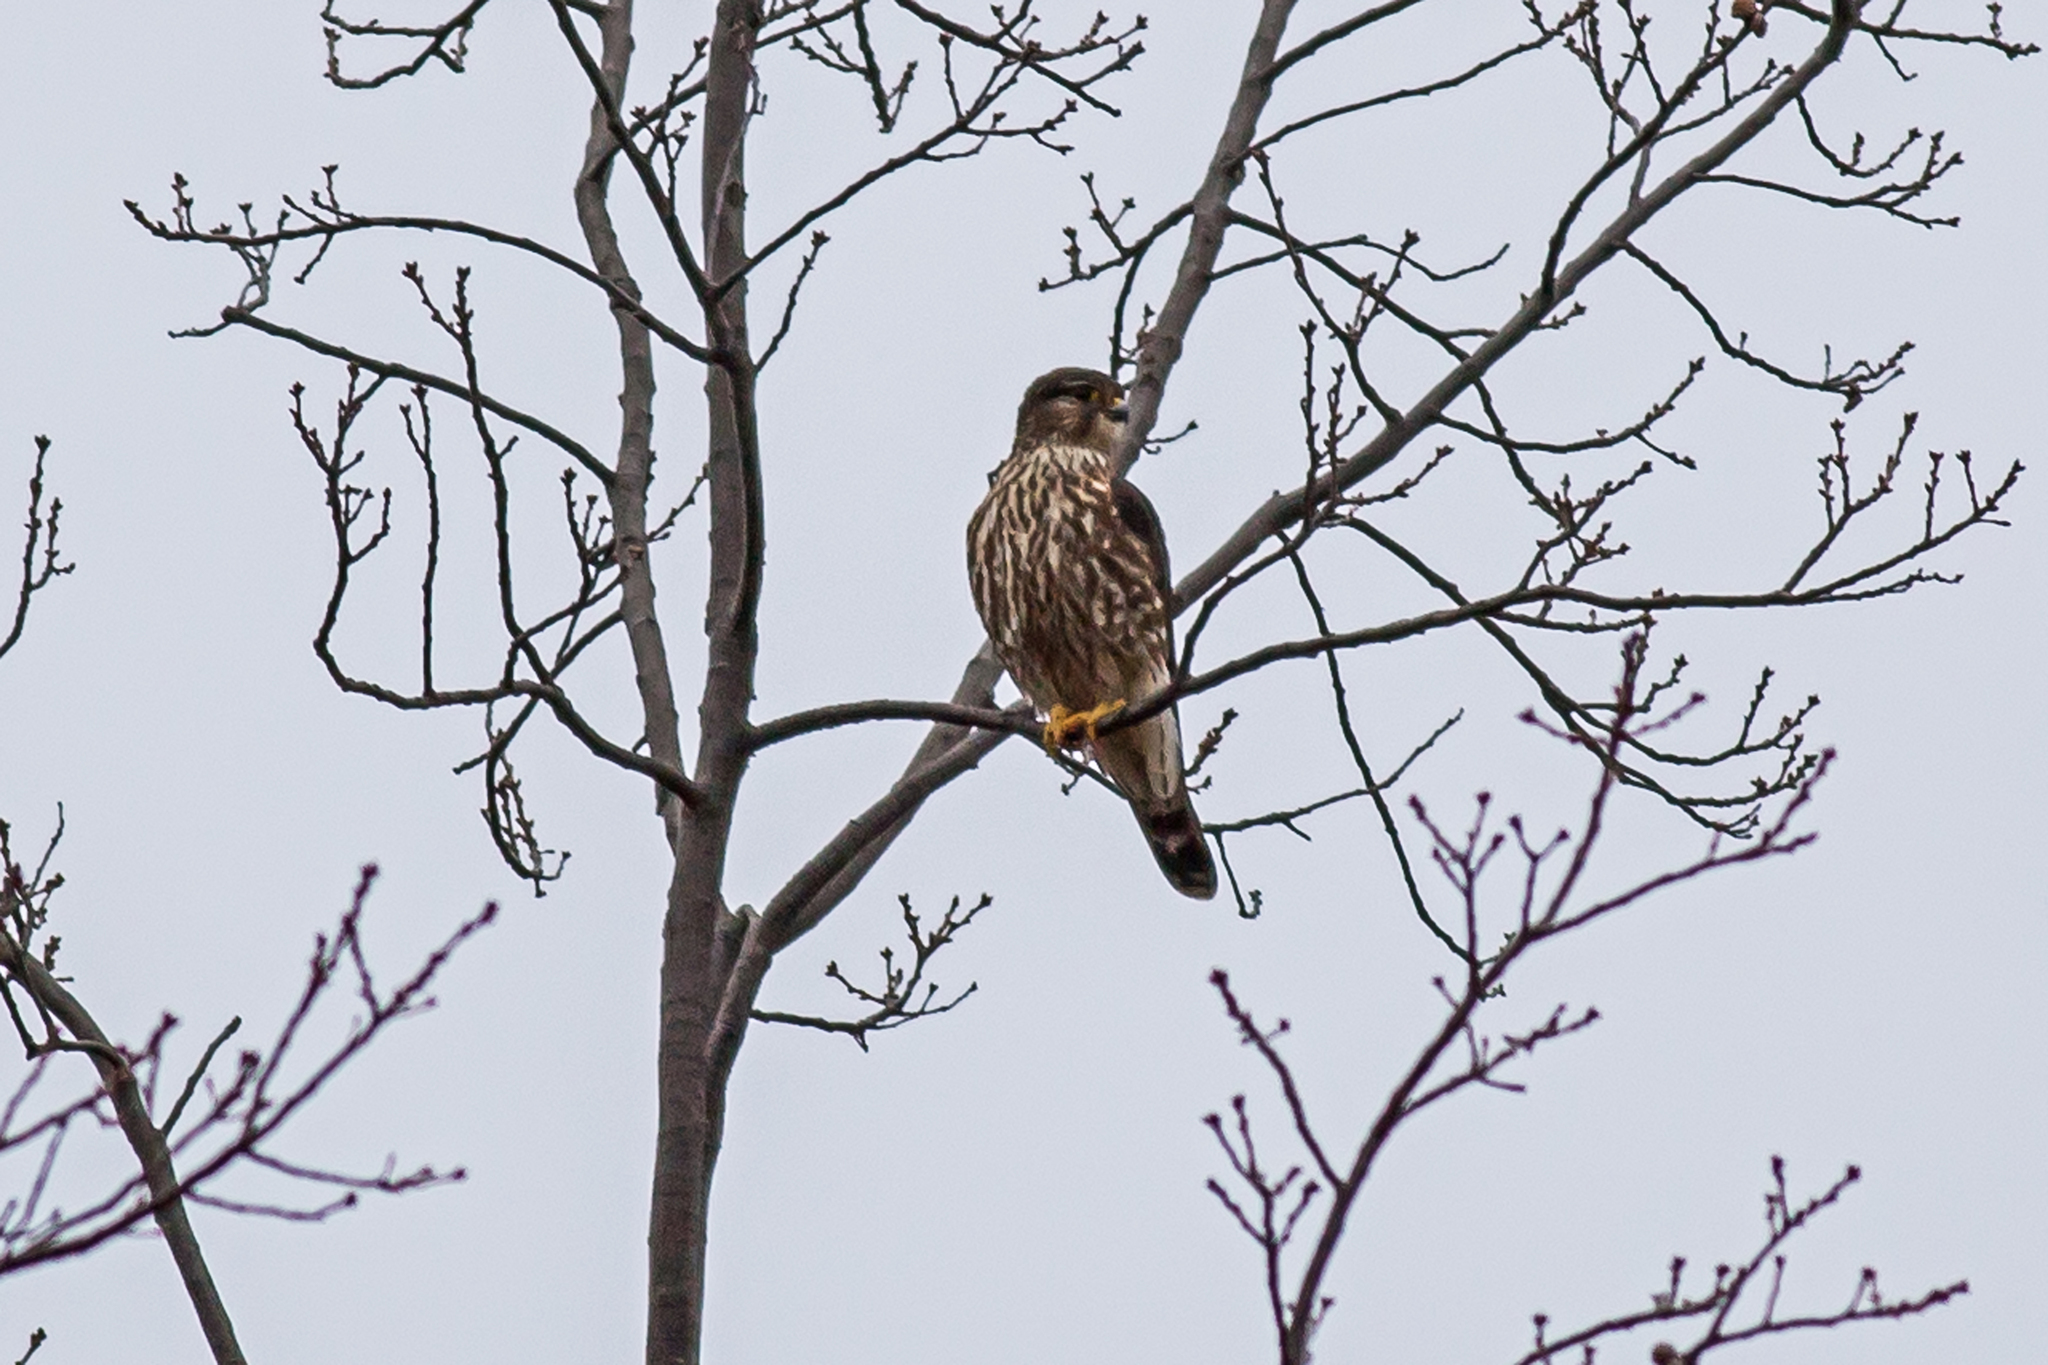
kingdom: Animalia
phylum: Chordata
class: Aves
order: Falconiformes
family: Falconidae
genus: Falco
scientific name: Falco columbarius
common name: Merlin
